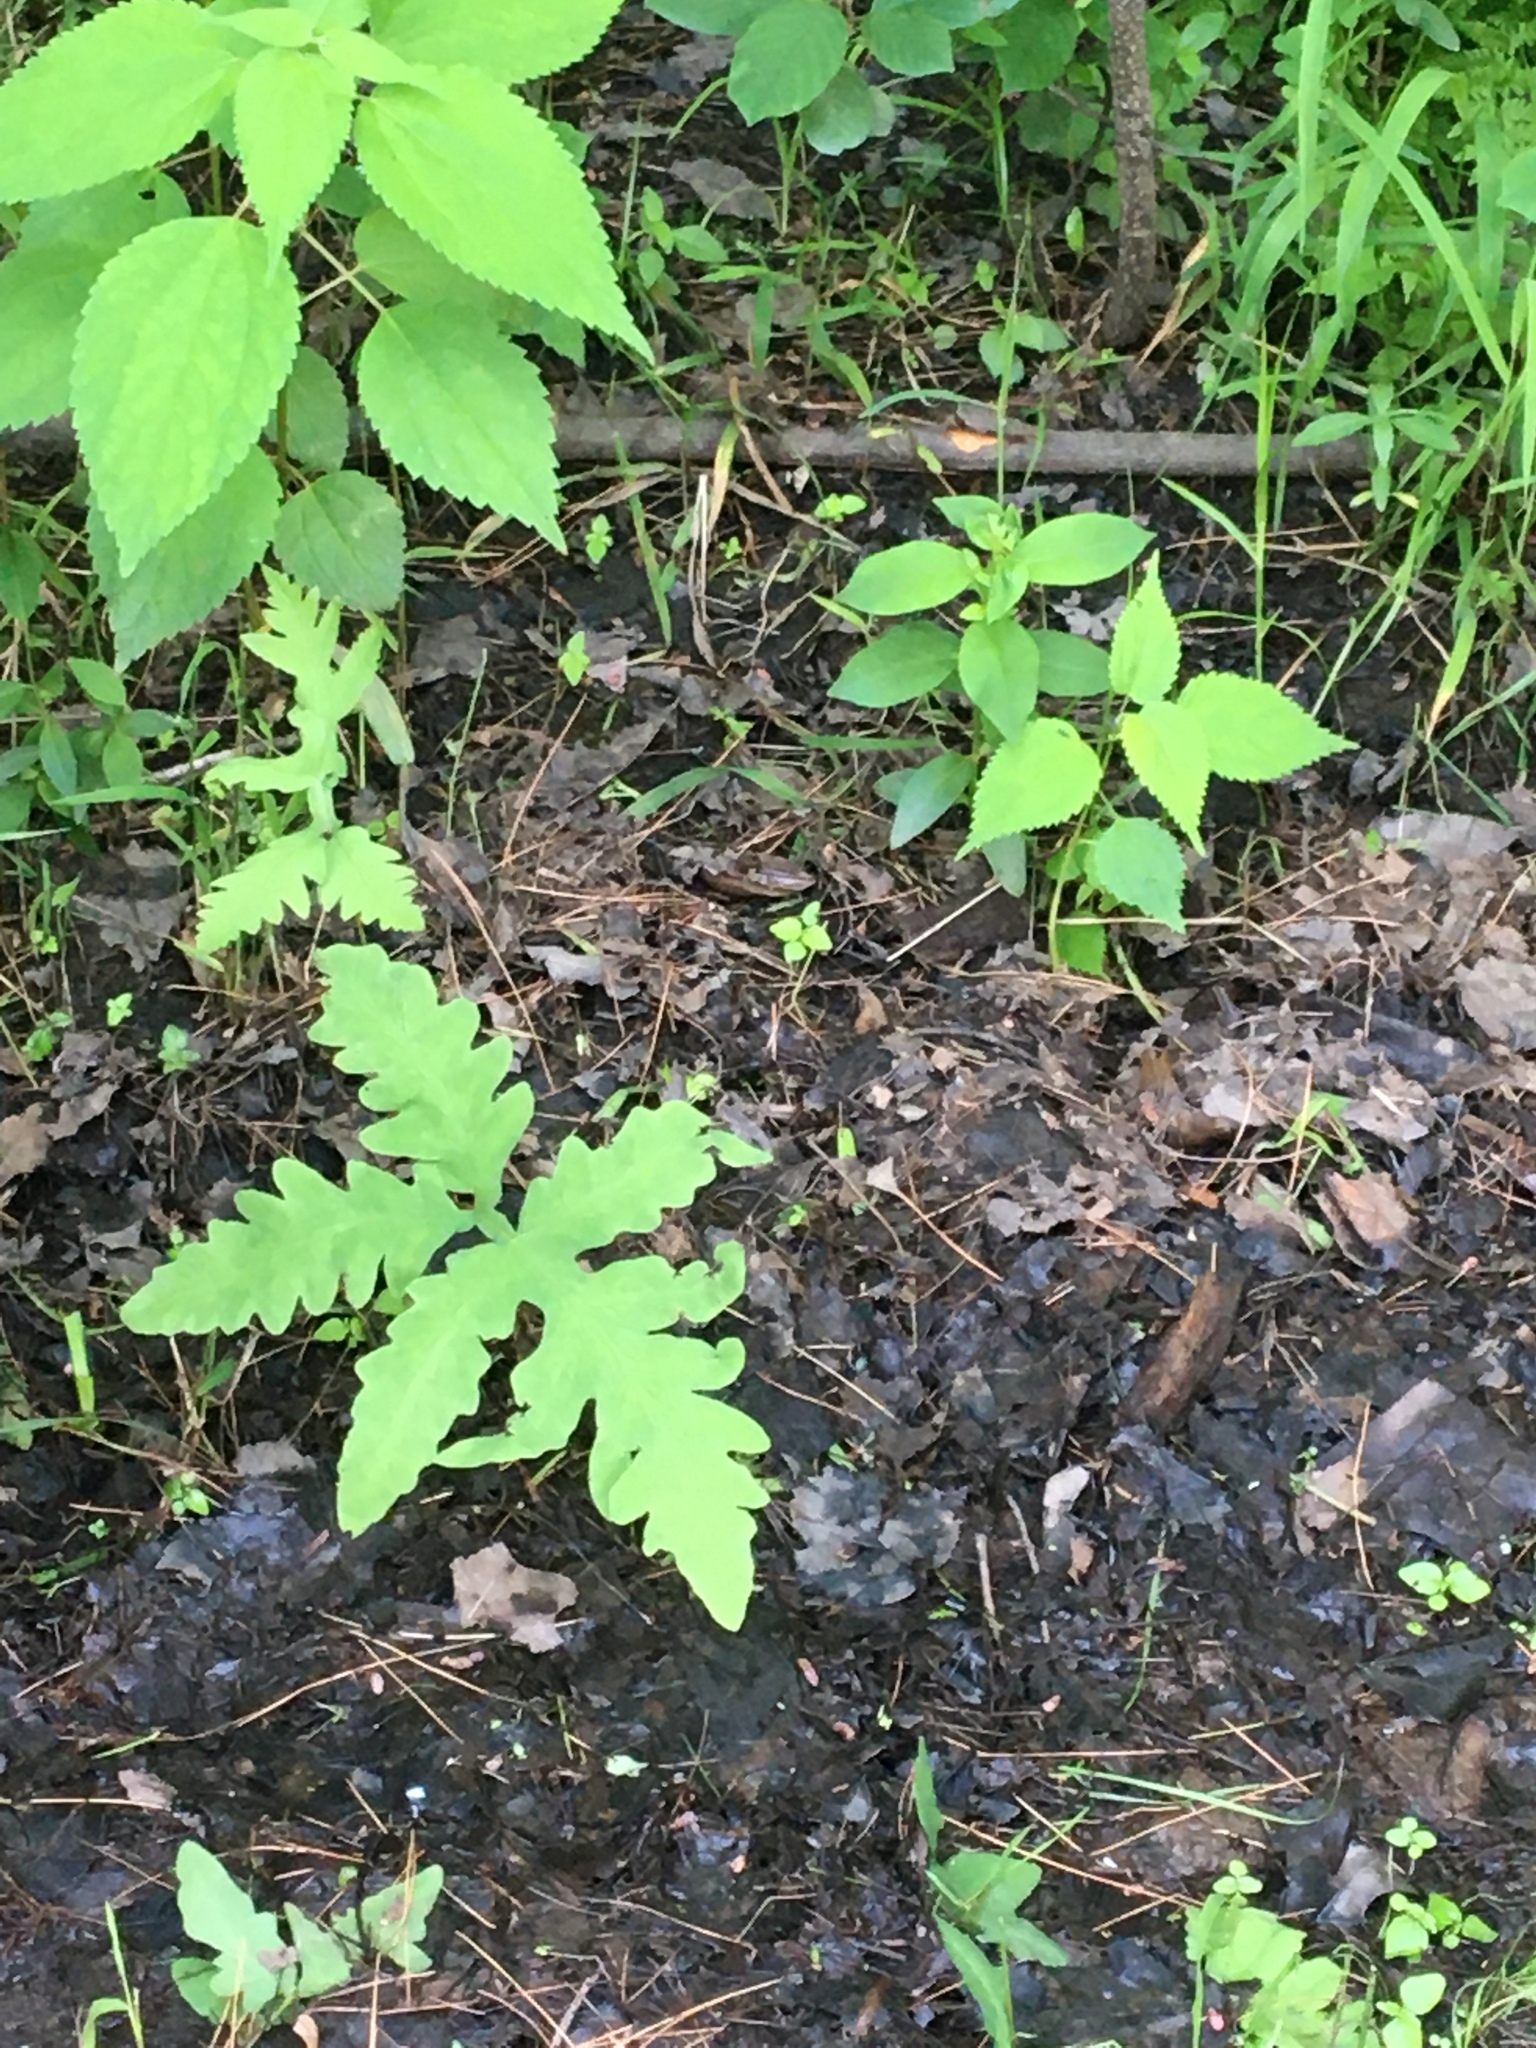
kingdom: Plantae
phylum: Tracheophyta
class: Polypodiopsida
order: Polypodiales
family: Onocleaceae
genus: Onoclea
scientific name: Onoclea sensibilis
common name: Sensitive fern
